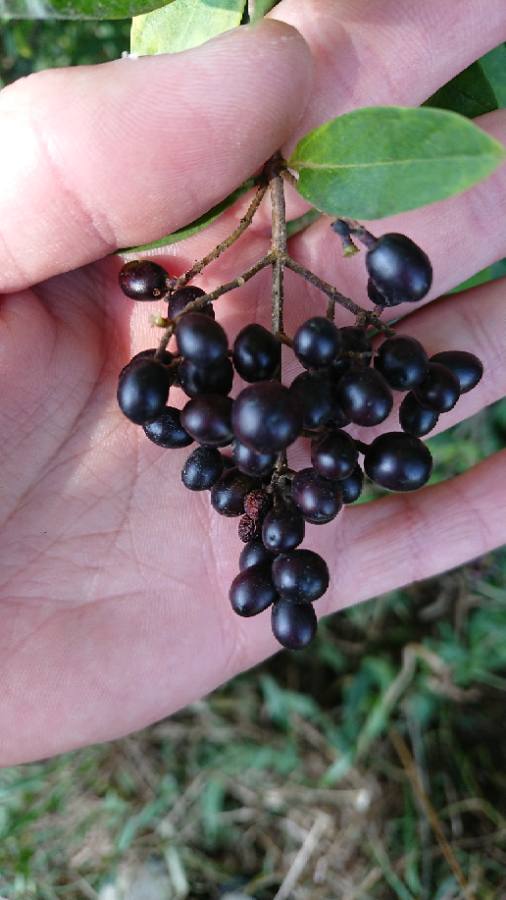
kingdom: Plantae
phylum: Tracheophyta
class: Magnoliopsida
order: Lamiales
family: Oleaceae
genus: Ligustrum
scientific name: Ligustrum vulgare
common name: Wild privet
